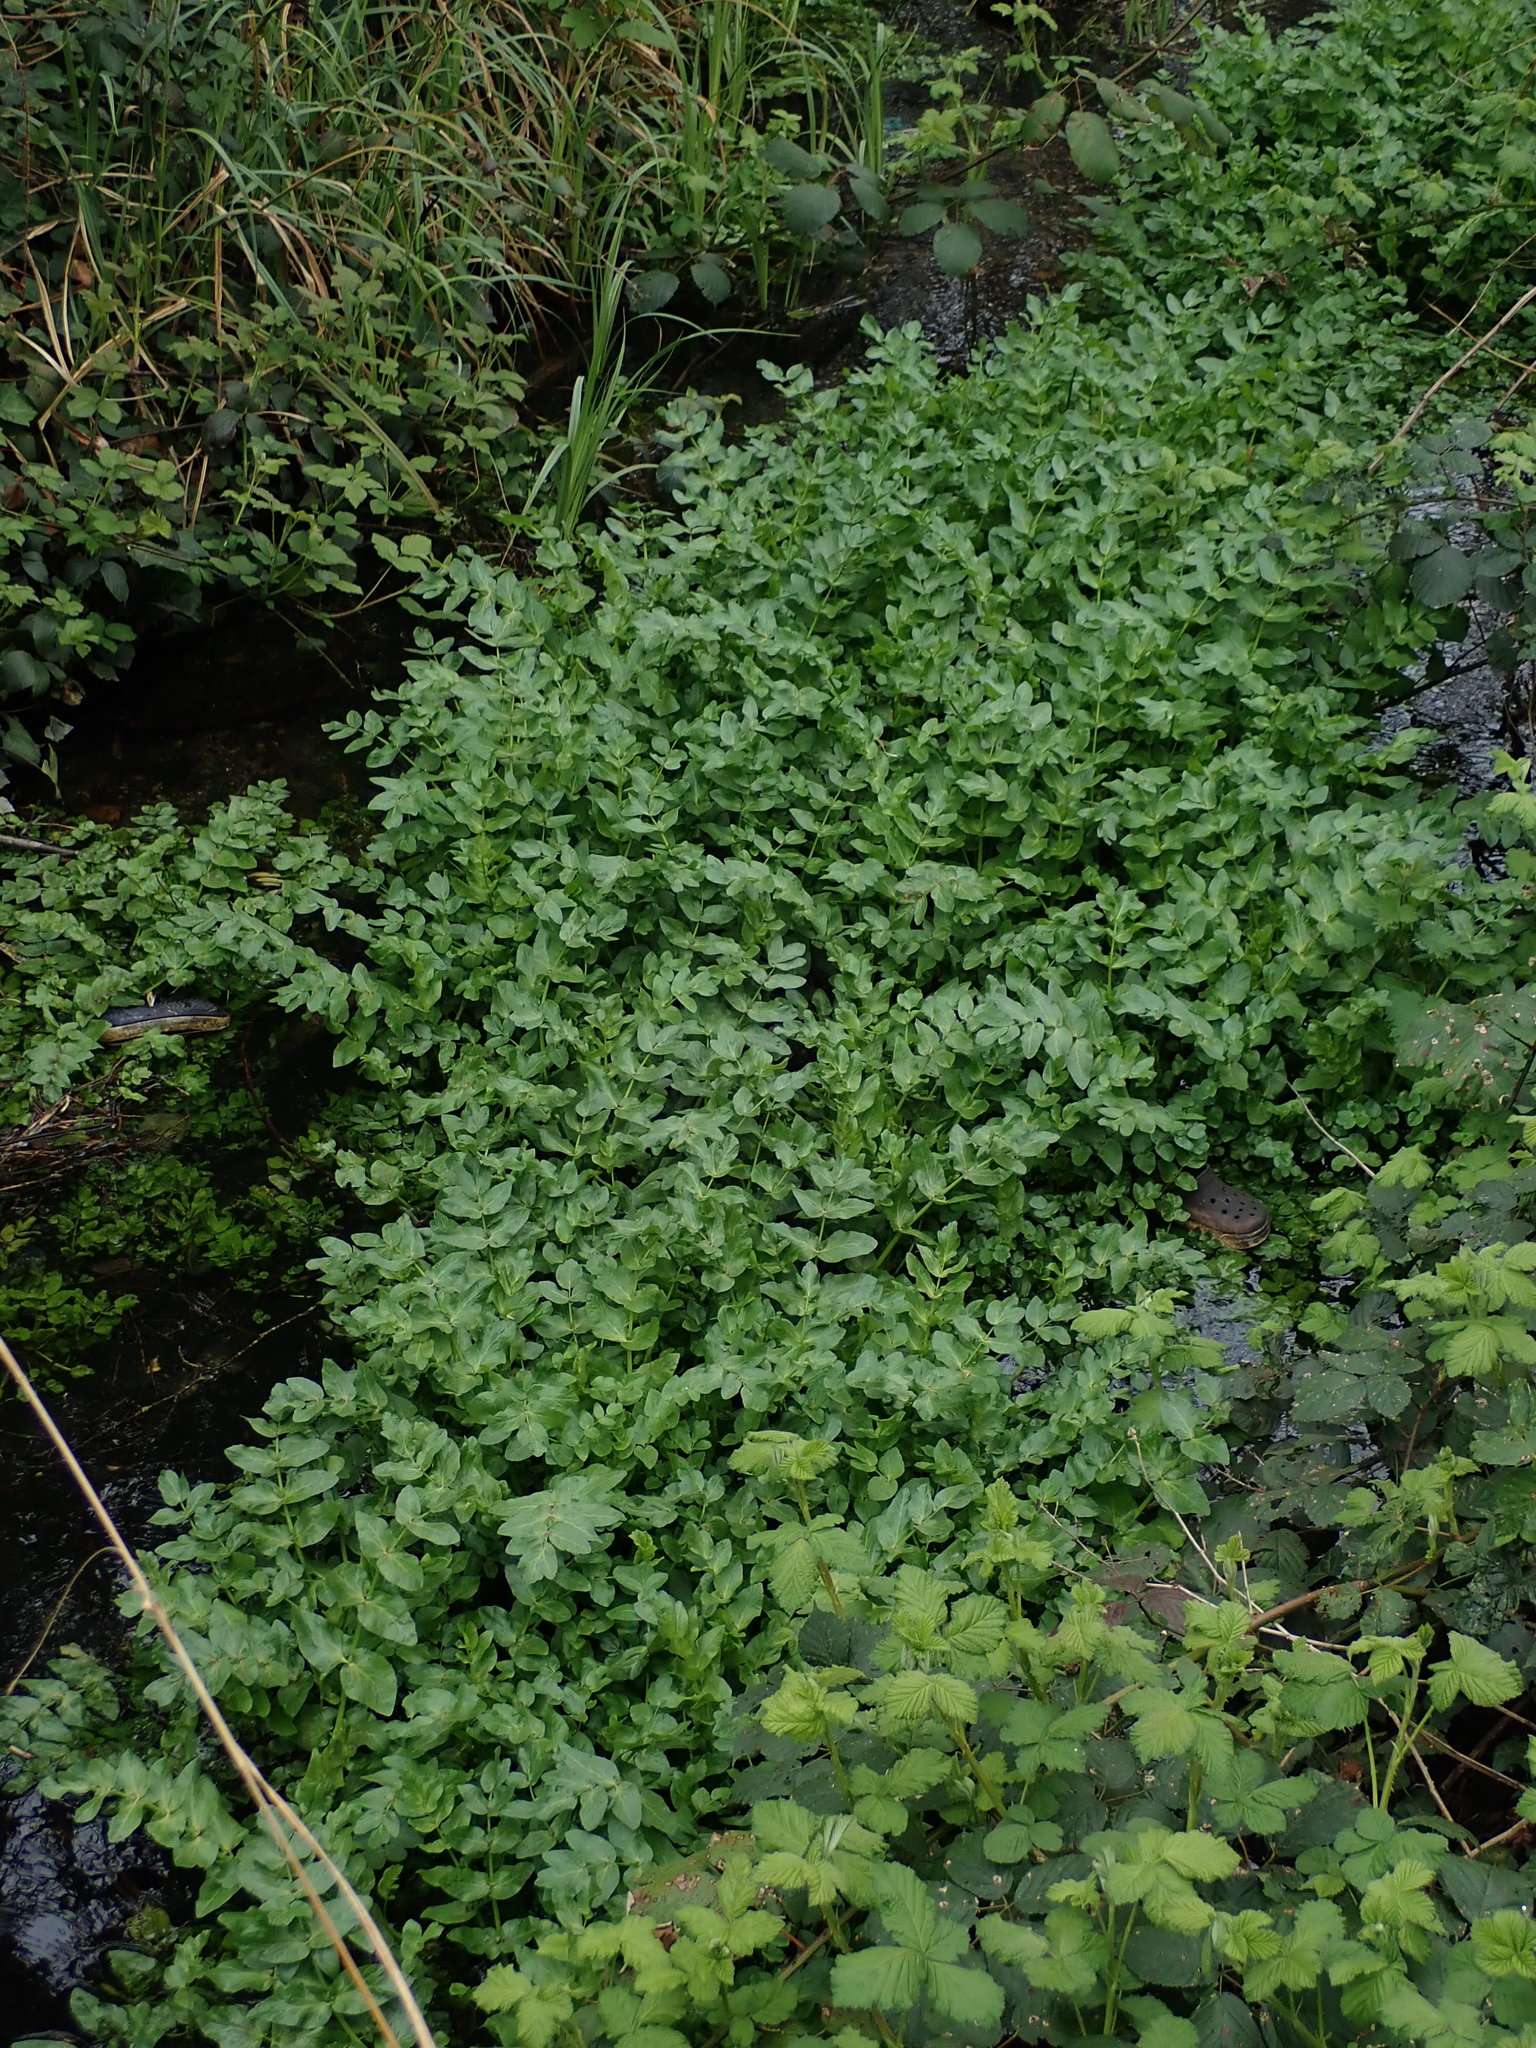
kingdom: Plantae
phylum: Tracheophyta
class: Magnoliopsida
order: Apiales
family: Apiaceae
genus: Helosciadium
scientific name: Helosciadium nodiflorum
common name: Fool's-watercress
